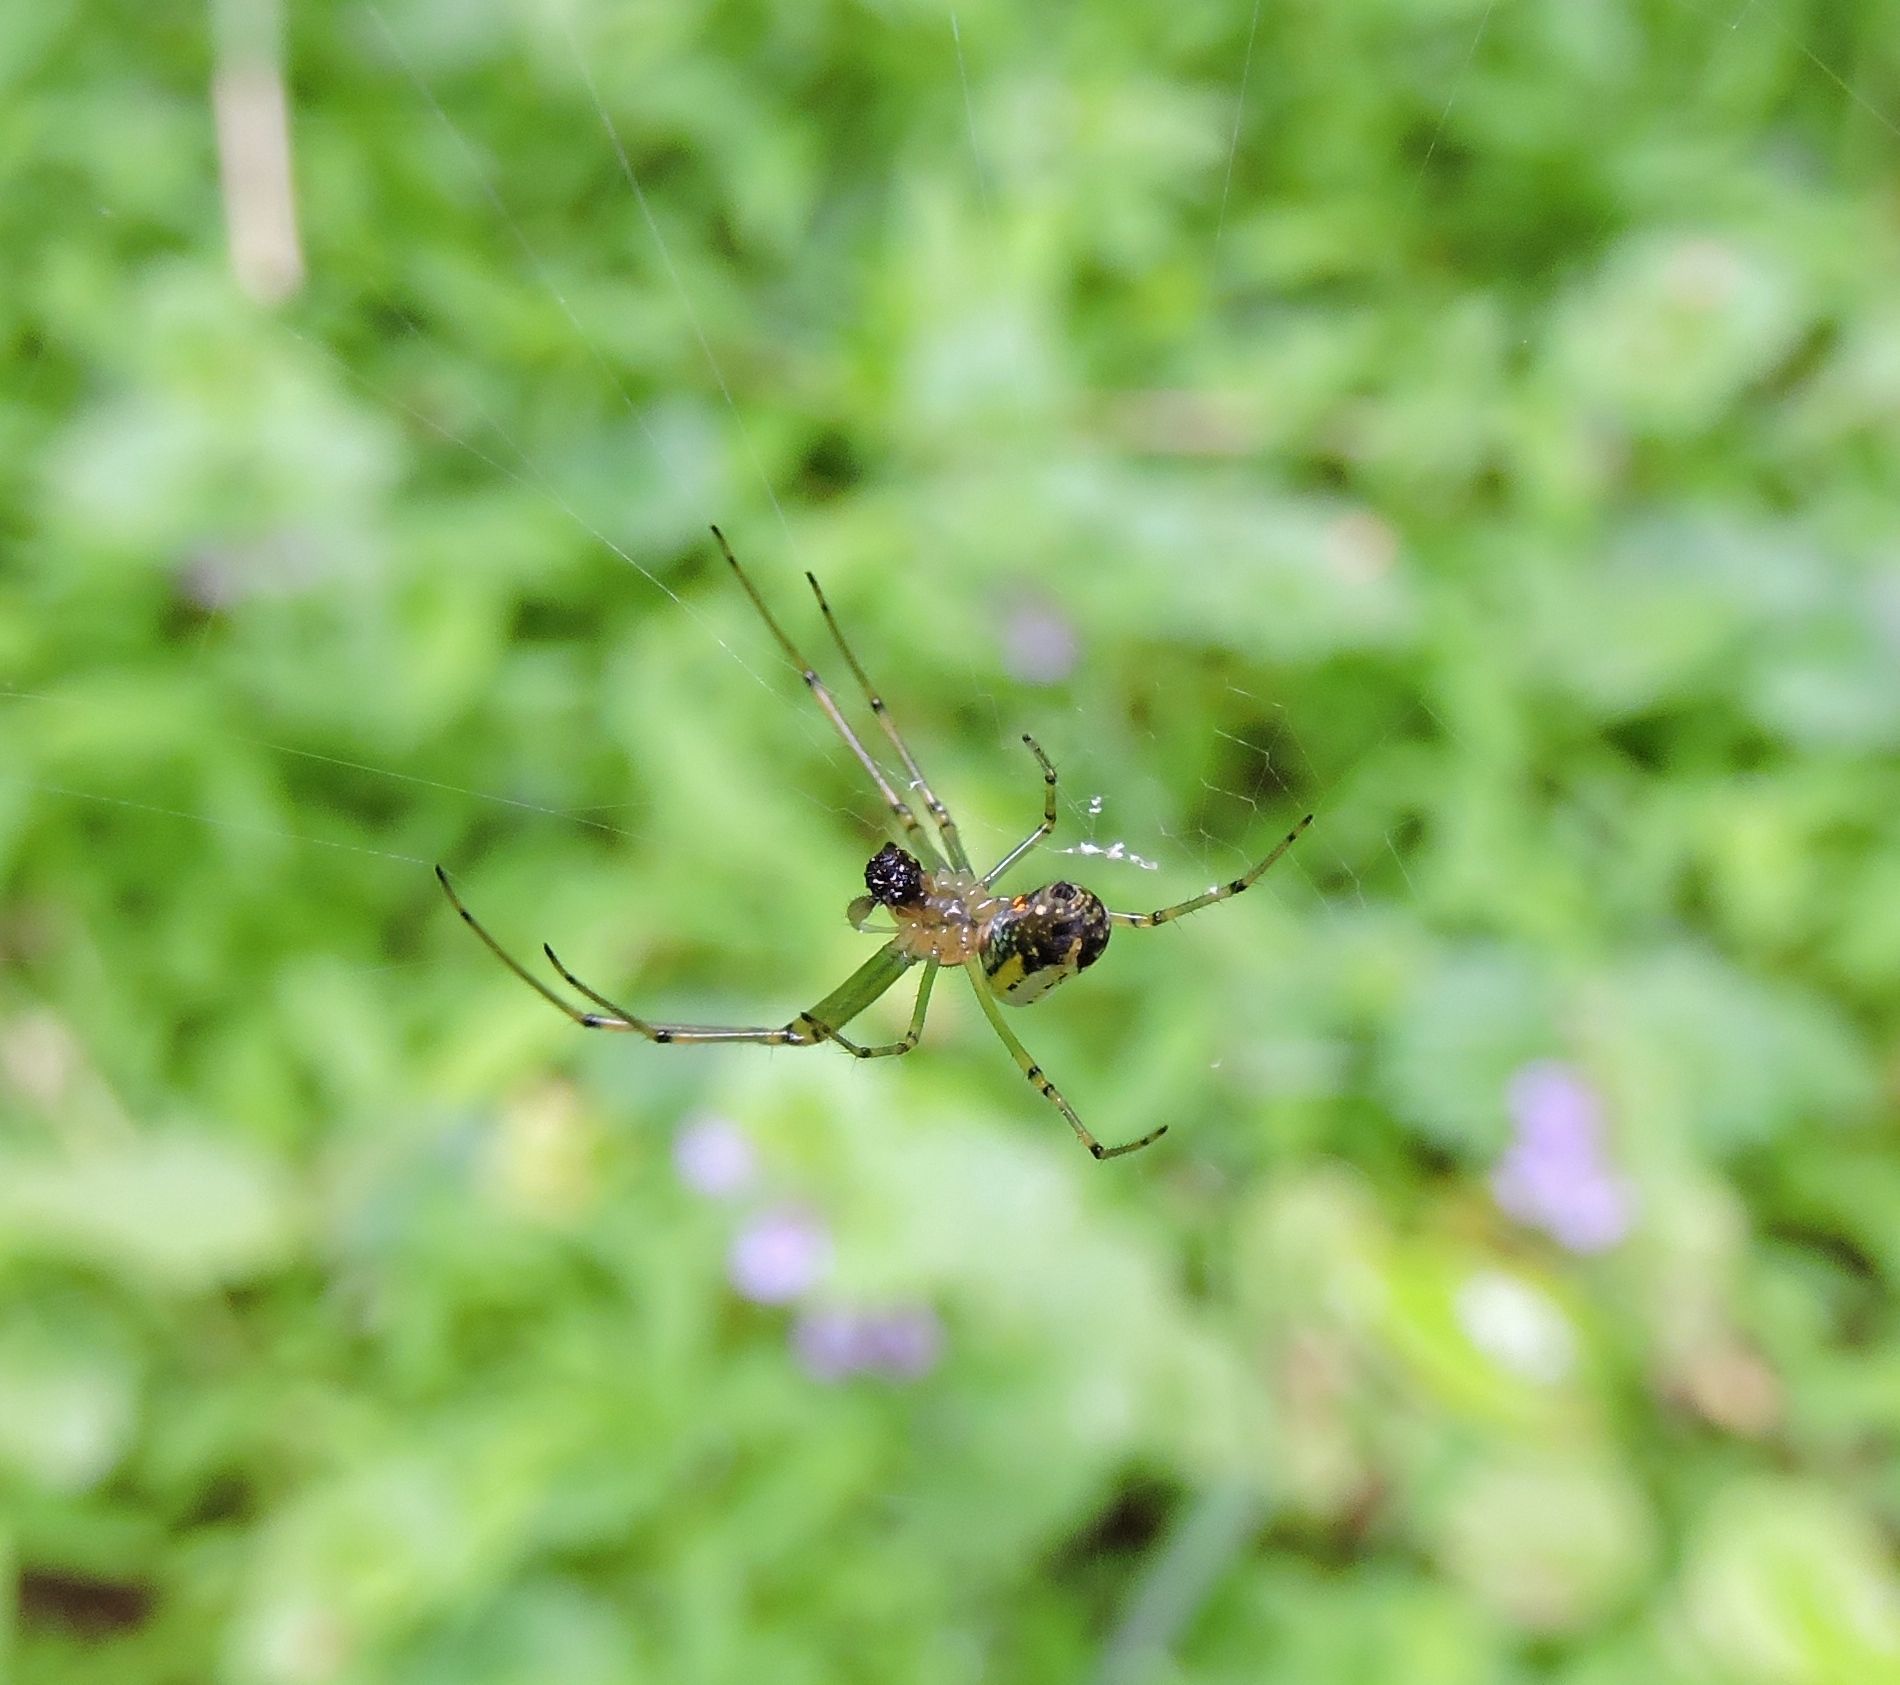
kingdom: Animalia
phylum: Arthropoda
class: Arachnida
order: Araneae
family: Tetragnathidae
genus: Leucauge
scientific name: Leucauge venusta
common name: Longjawed orb weavers
